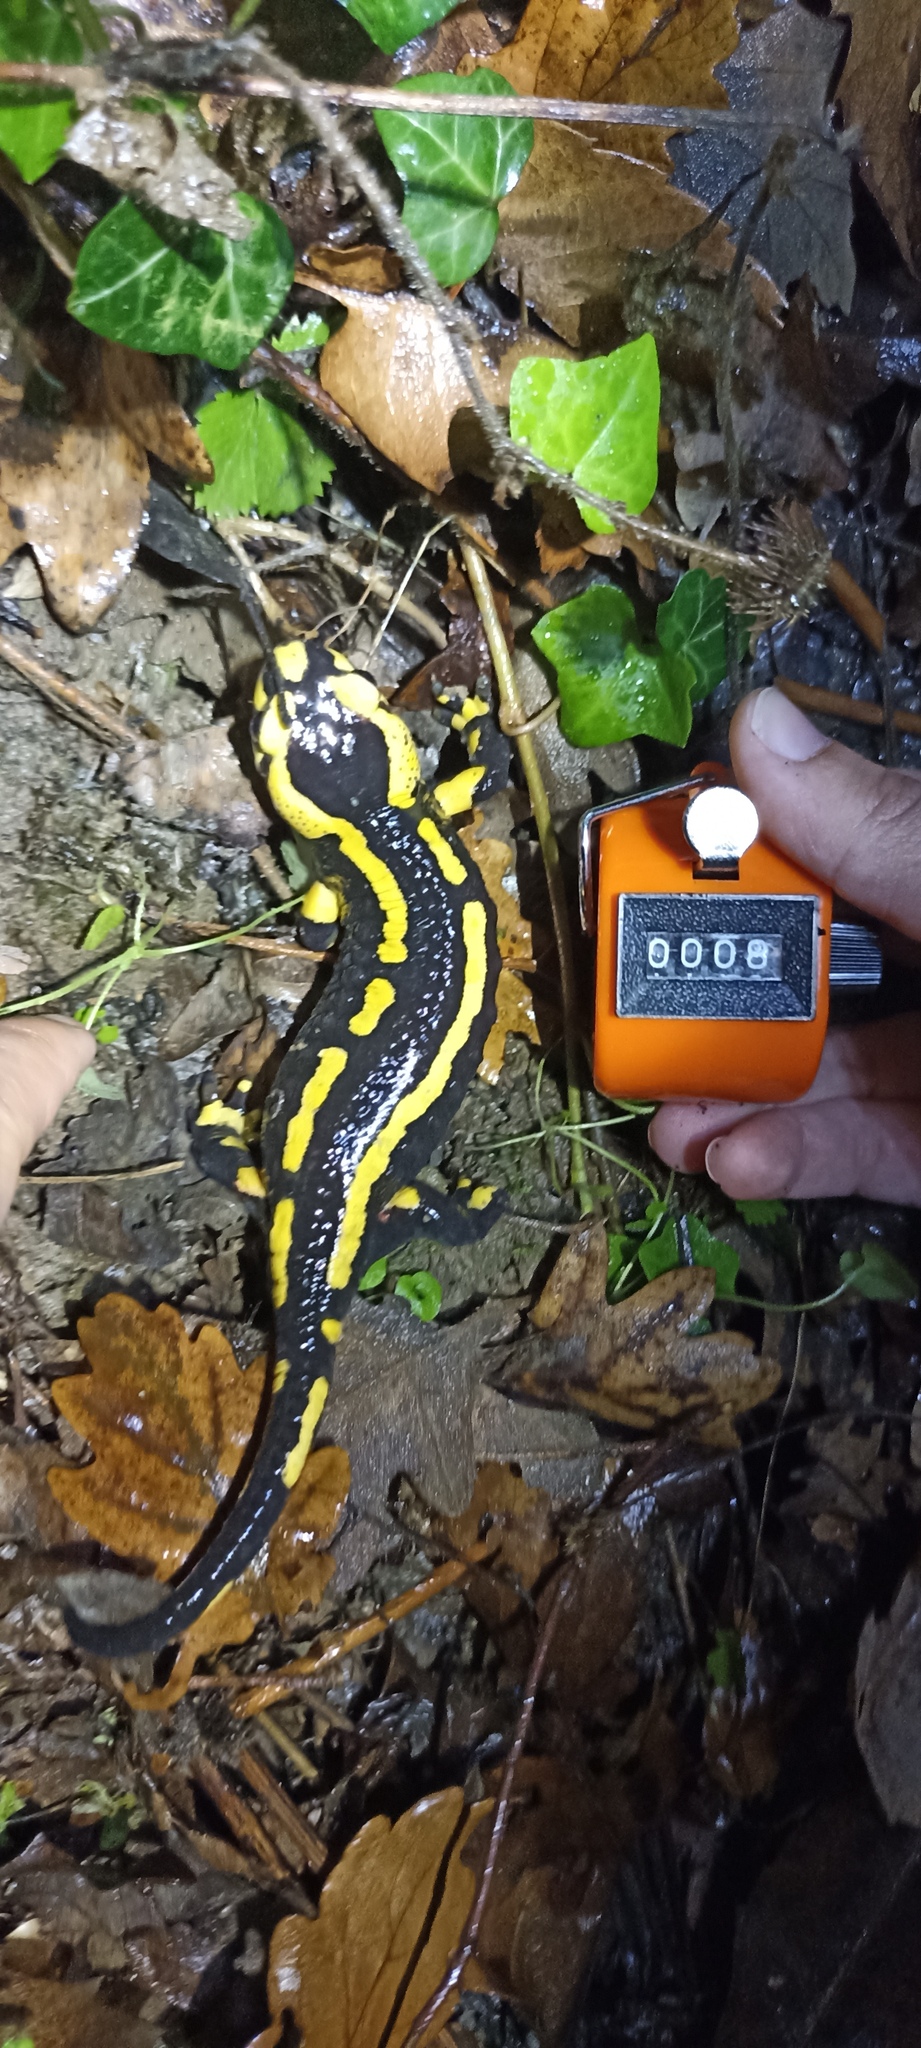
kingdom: Animalia
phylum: Chordata
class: Amphibia
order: Caudata
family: Salamandridae
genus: Salamandra
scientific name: Salamandra salamandra
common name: Fire salamander
